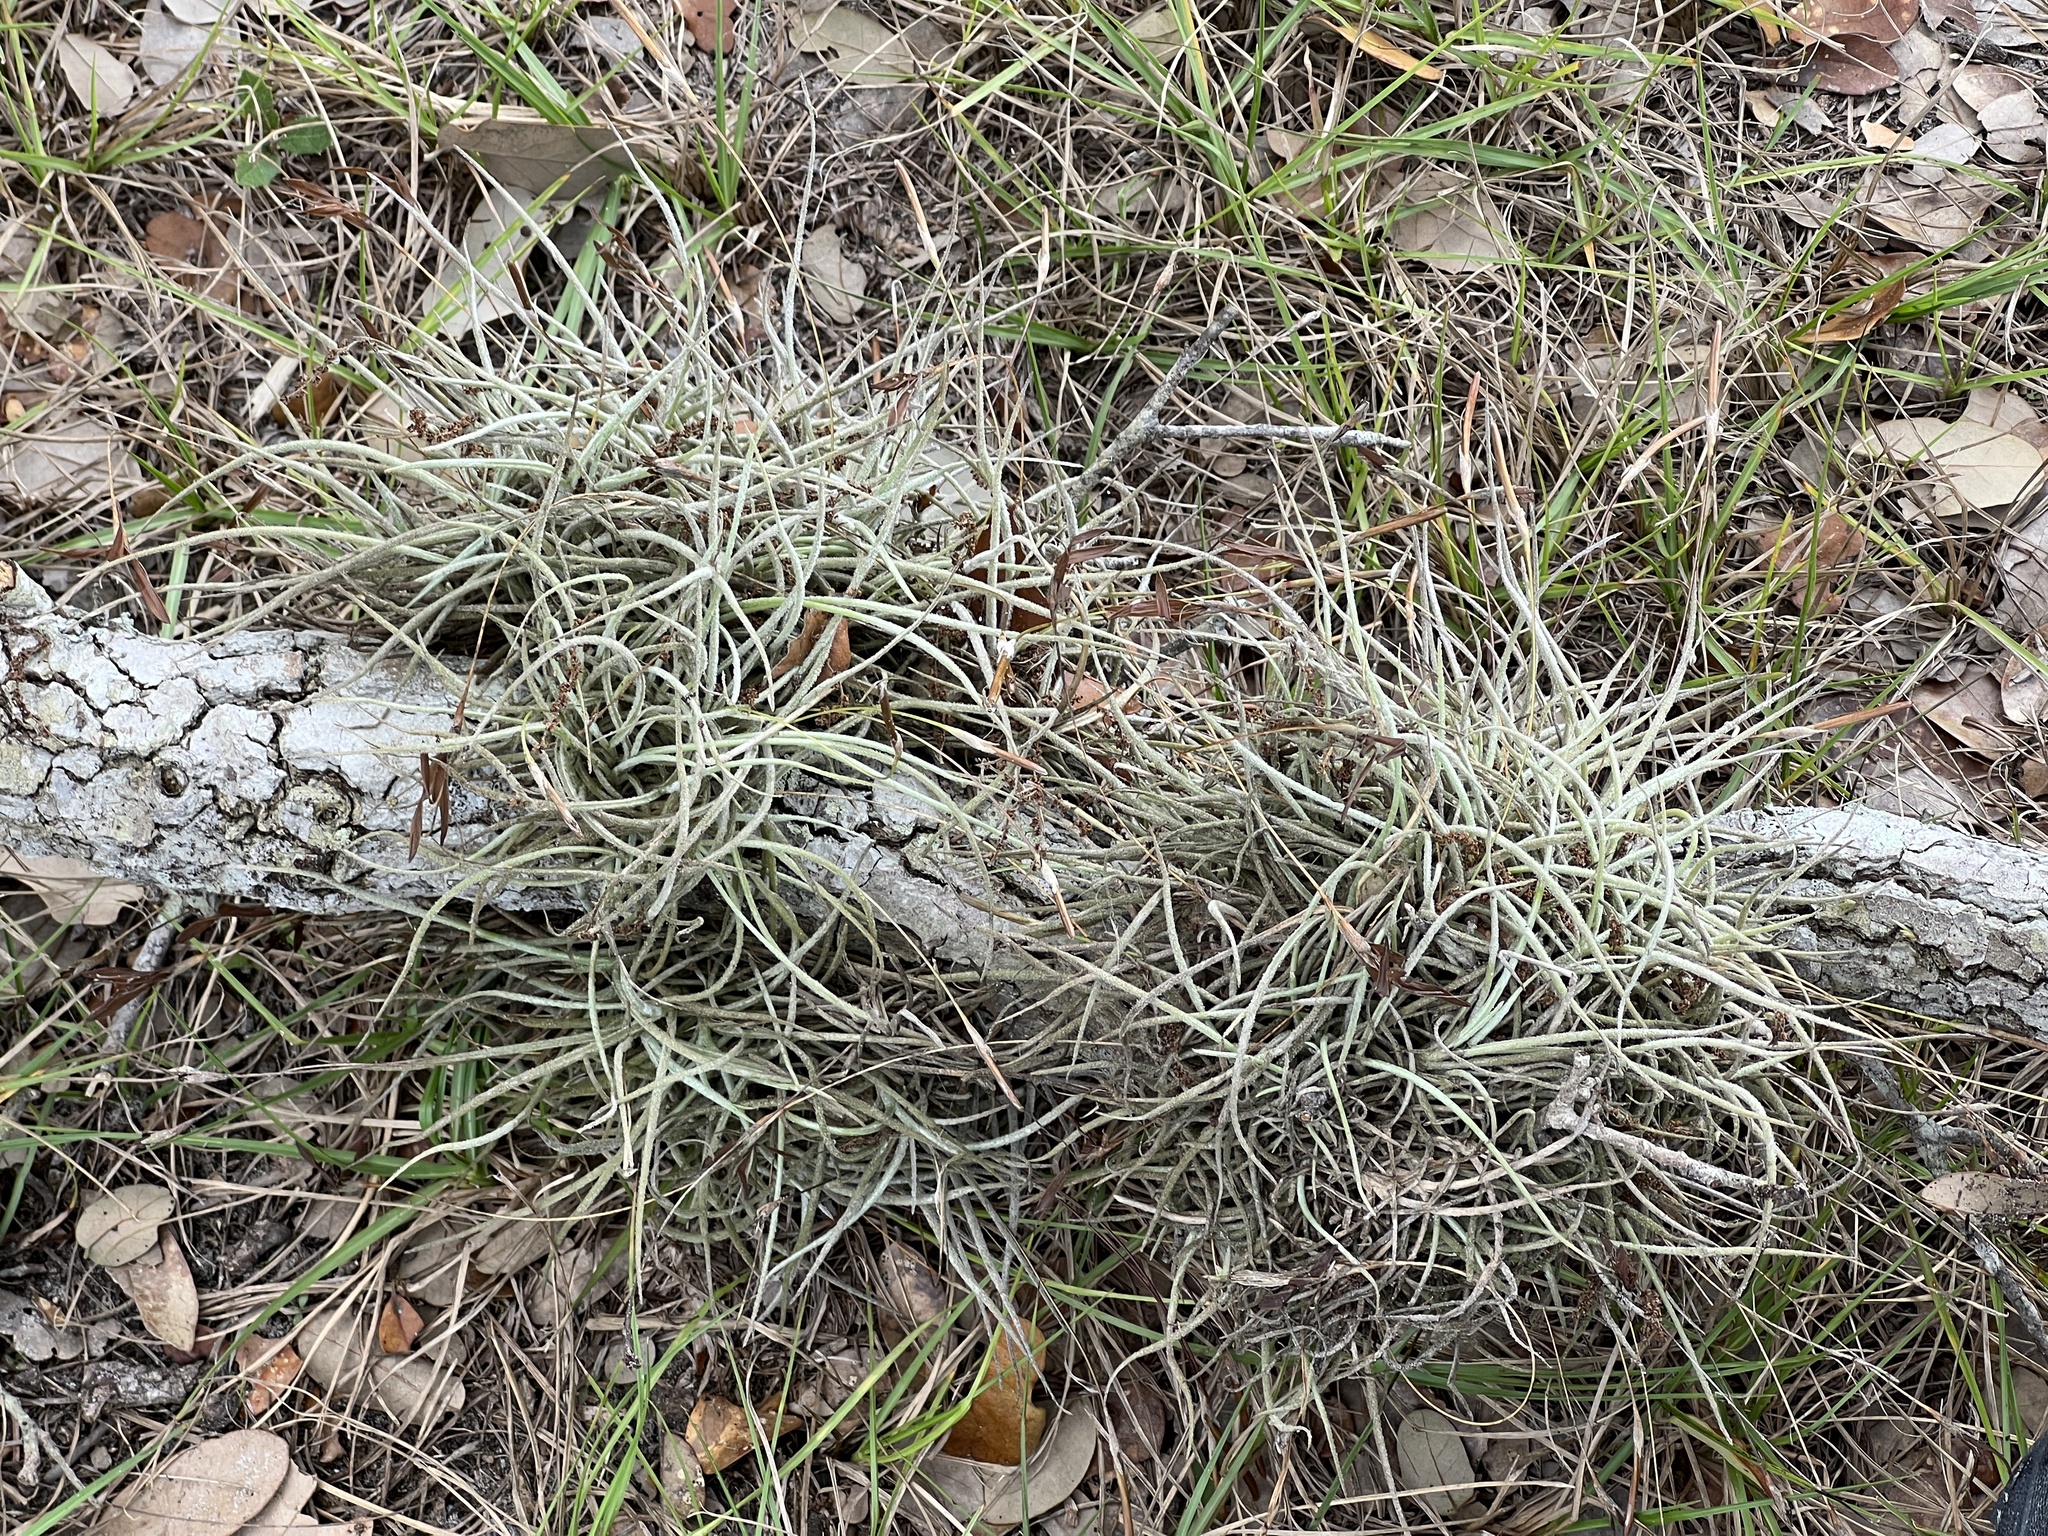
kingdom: Plantae
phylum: Tracheophyta
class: Liliopsida
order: Poales
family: Bromeliaceae
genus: Tillandsia
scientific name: Tillandsia recurvata
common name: Small ballmoss
